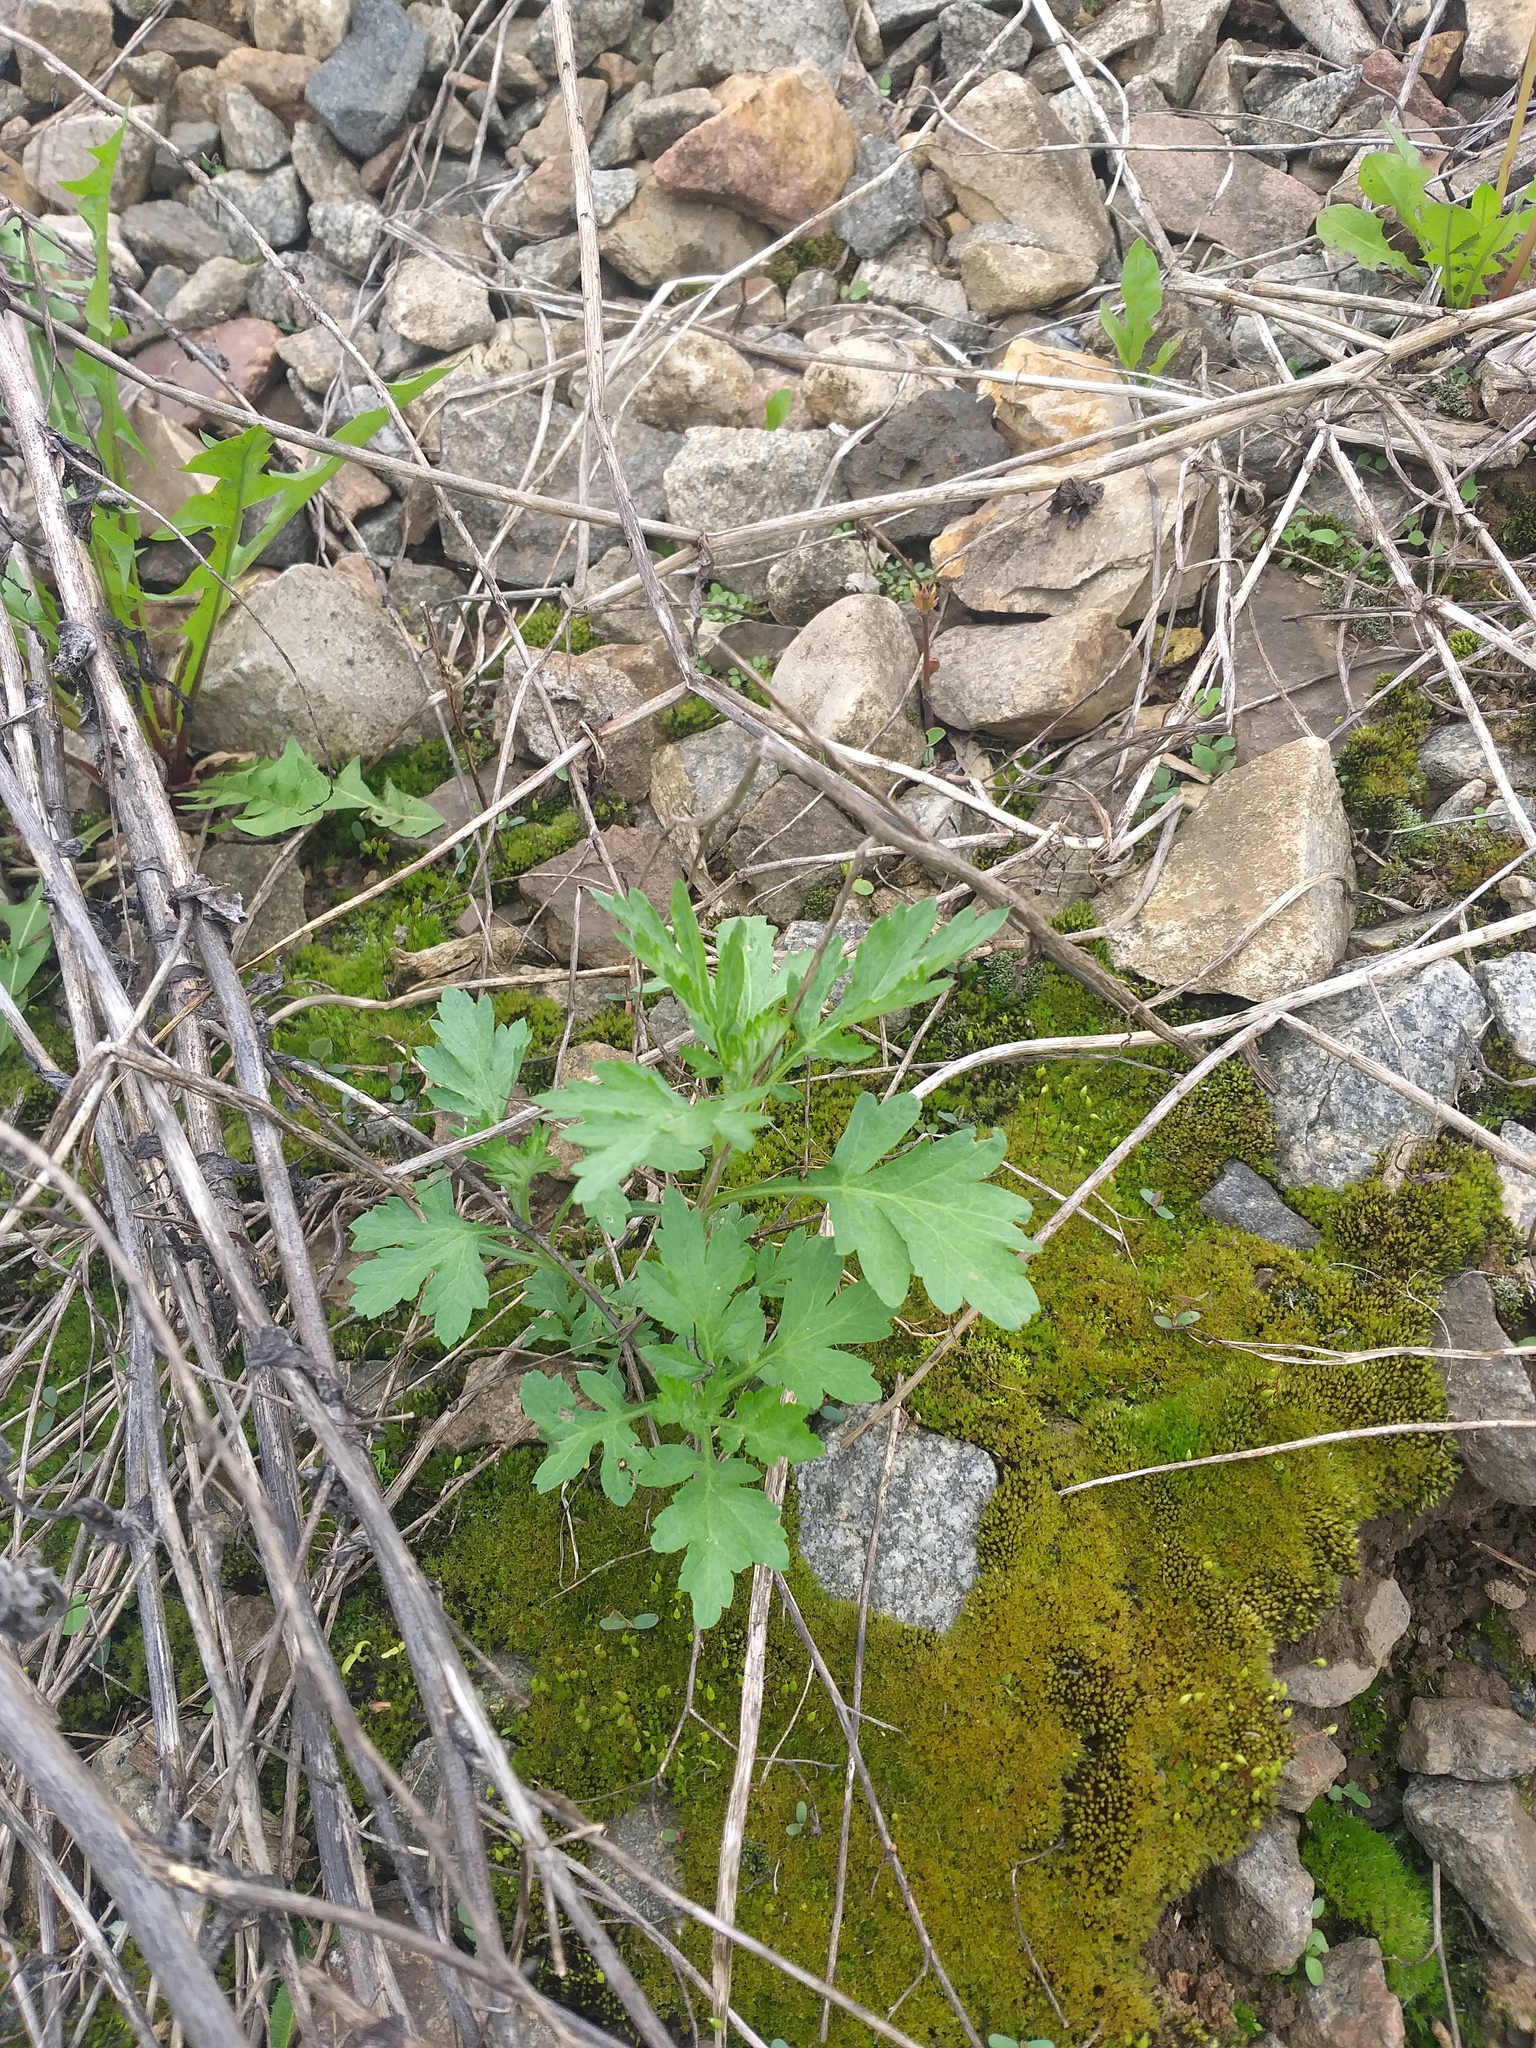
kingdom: Plantae
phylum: Tracheophyta
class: Magnoliopsida
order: Asterales
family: Asteraceae
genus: Artemisia
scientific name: Artemisia vulgaris
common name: Mugwort
